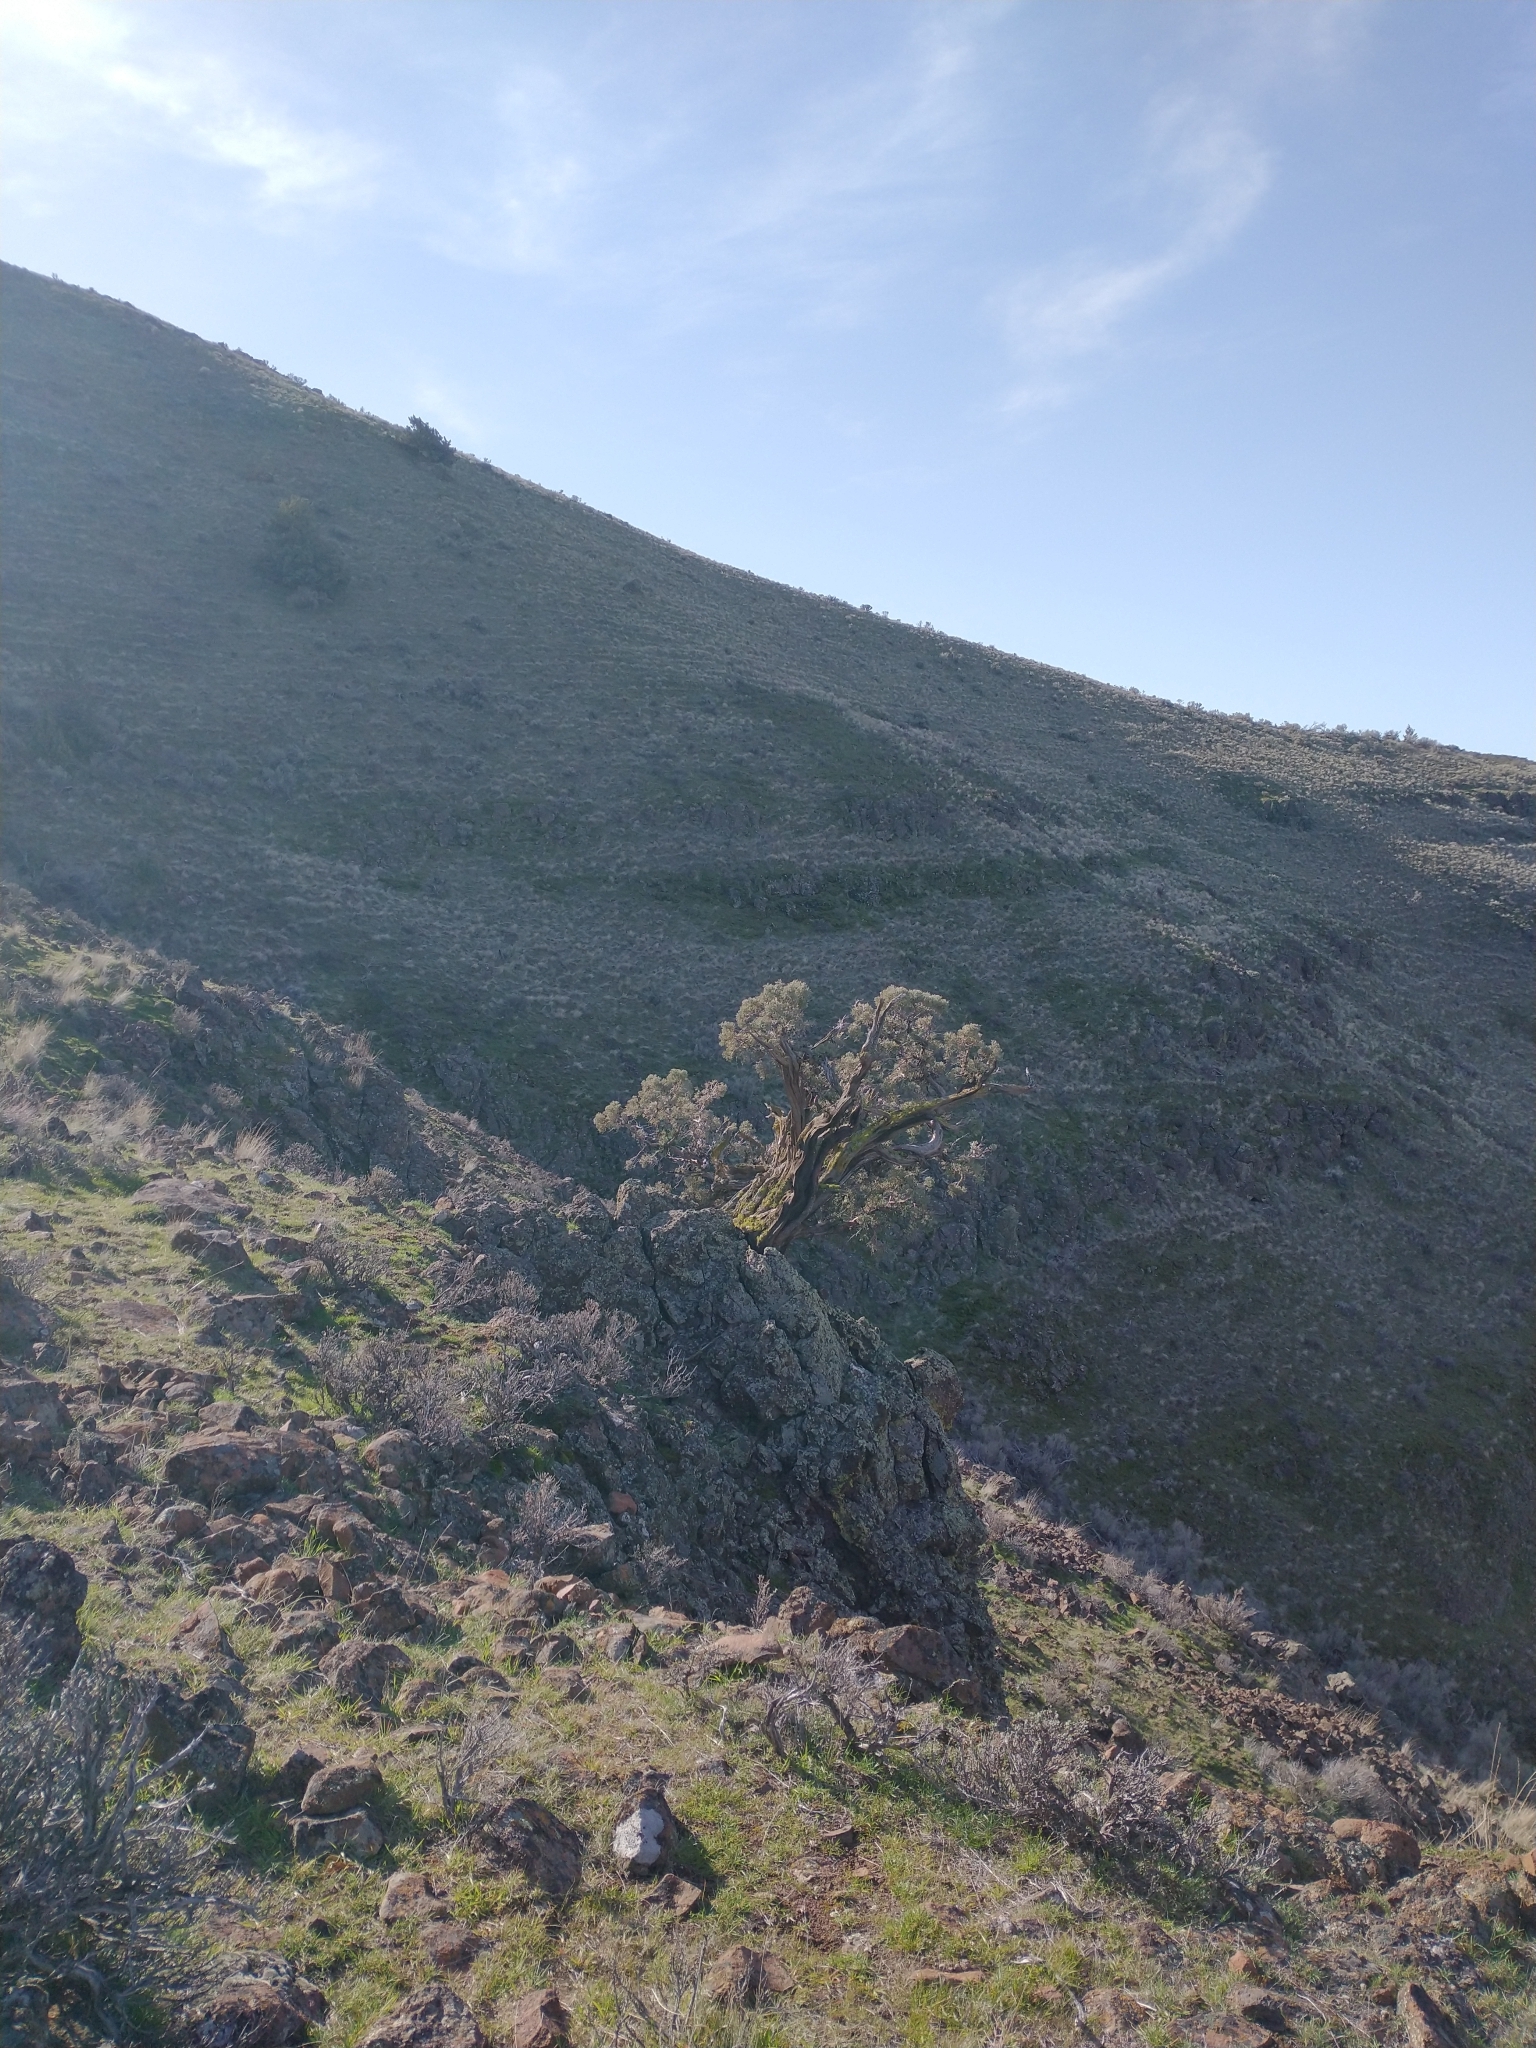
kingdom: Plantae
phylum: Tracheophyta
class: Pinopsida
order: Pinales
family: Cupressaceae
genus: Juniperus
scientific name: Juniperus occidentalis
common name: Western juniper
